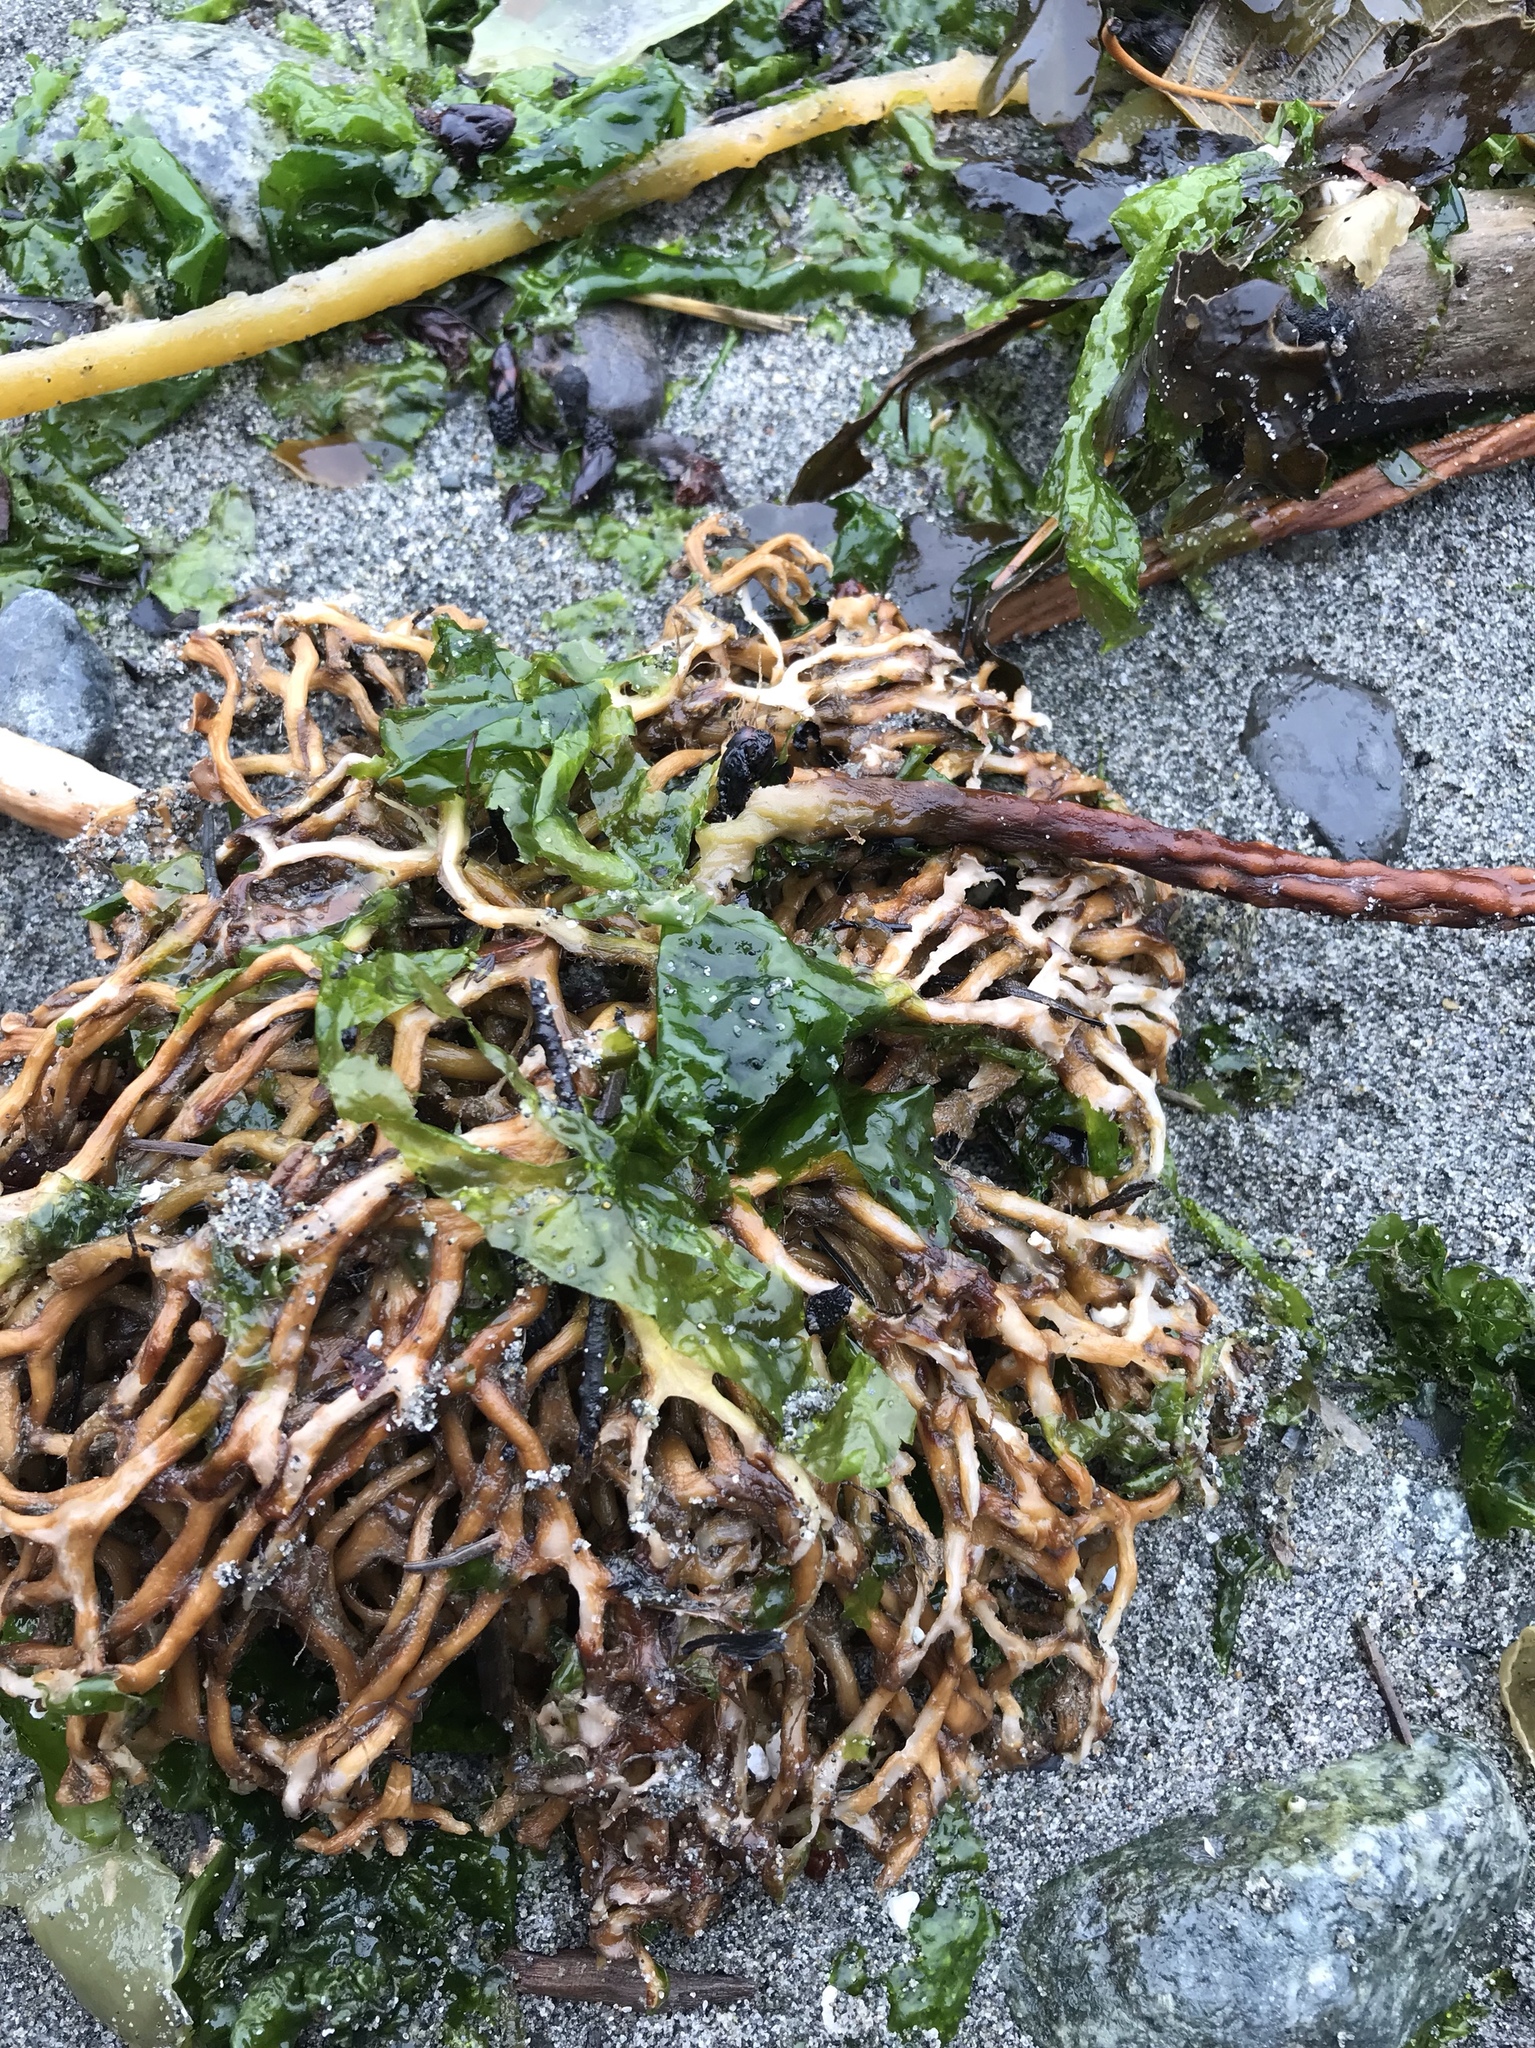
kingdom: Chromista
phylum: Ochrophyta
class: Phaeophyceae
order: Laminariales
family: Laminariaceae
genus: Nereocystis
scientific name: Nereocystis luetkeana
